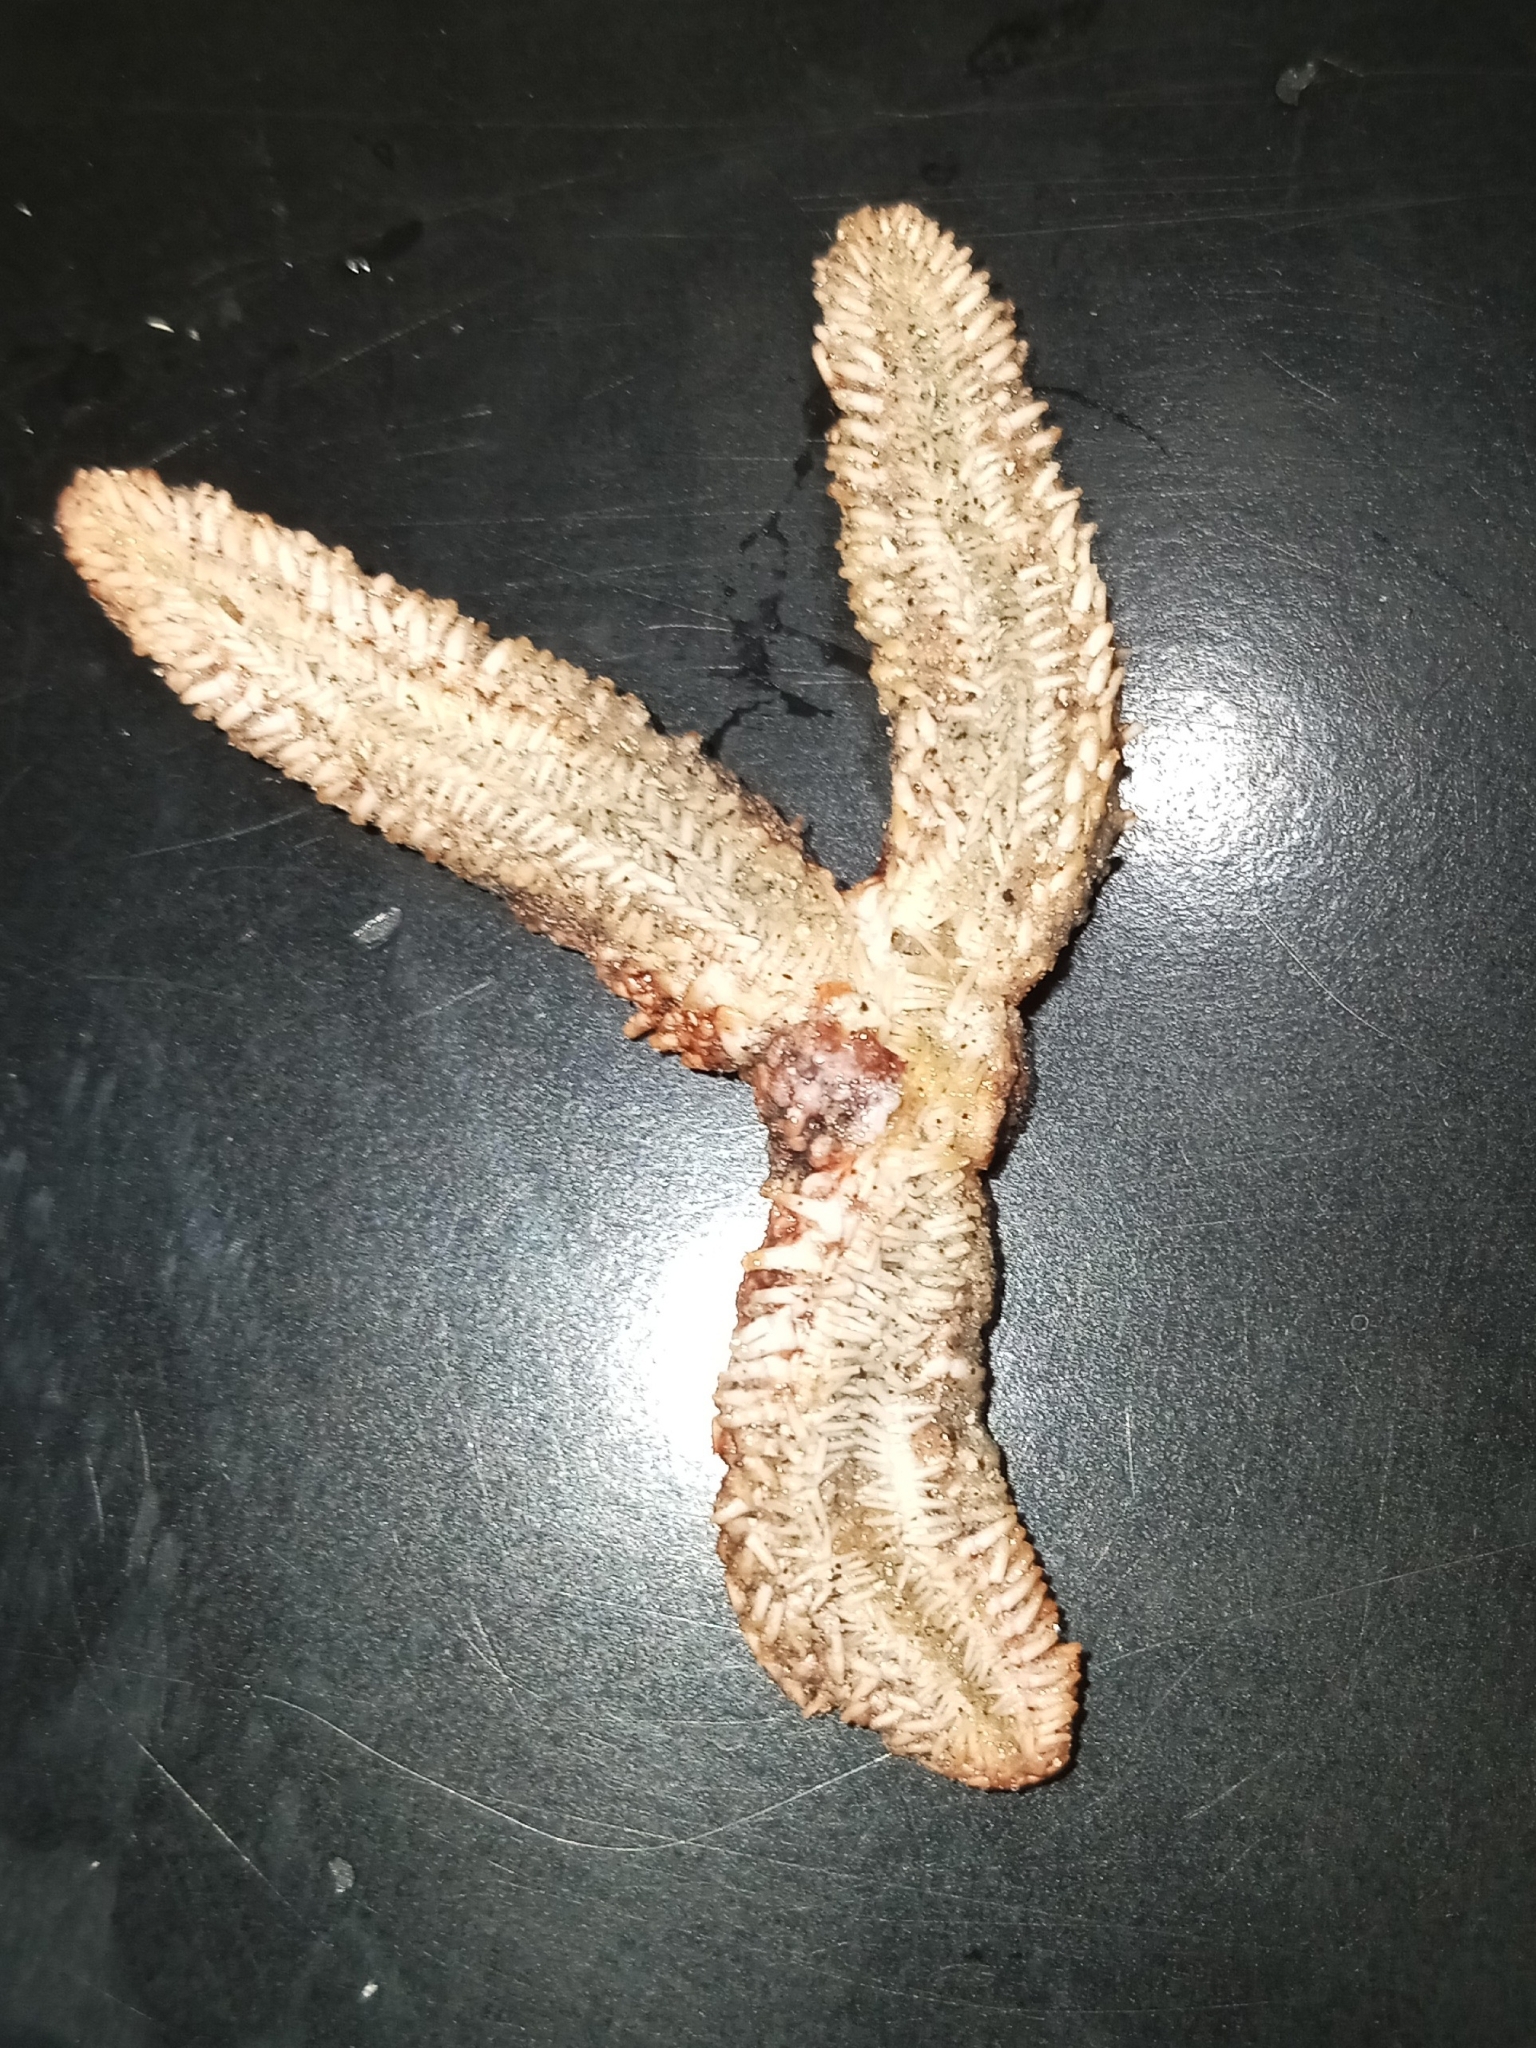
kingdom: Animalia
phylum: Echinodermata
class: Asteroidea
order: Forcipulatida
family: Asteriidae
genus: Asterias
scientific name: Asterias forbesi
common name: Forbes's sea star
